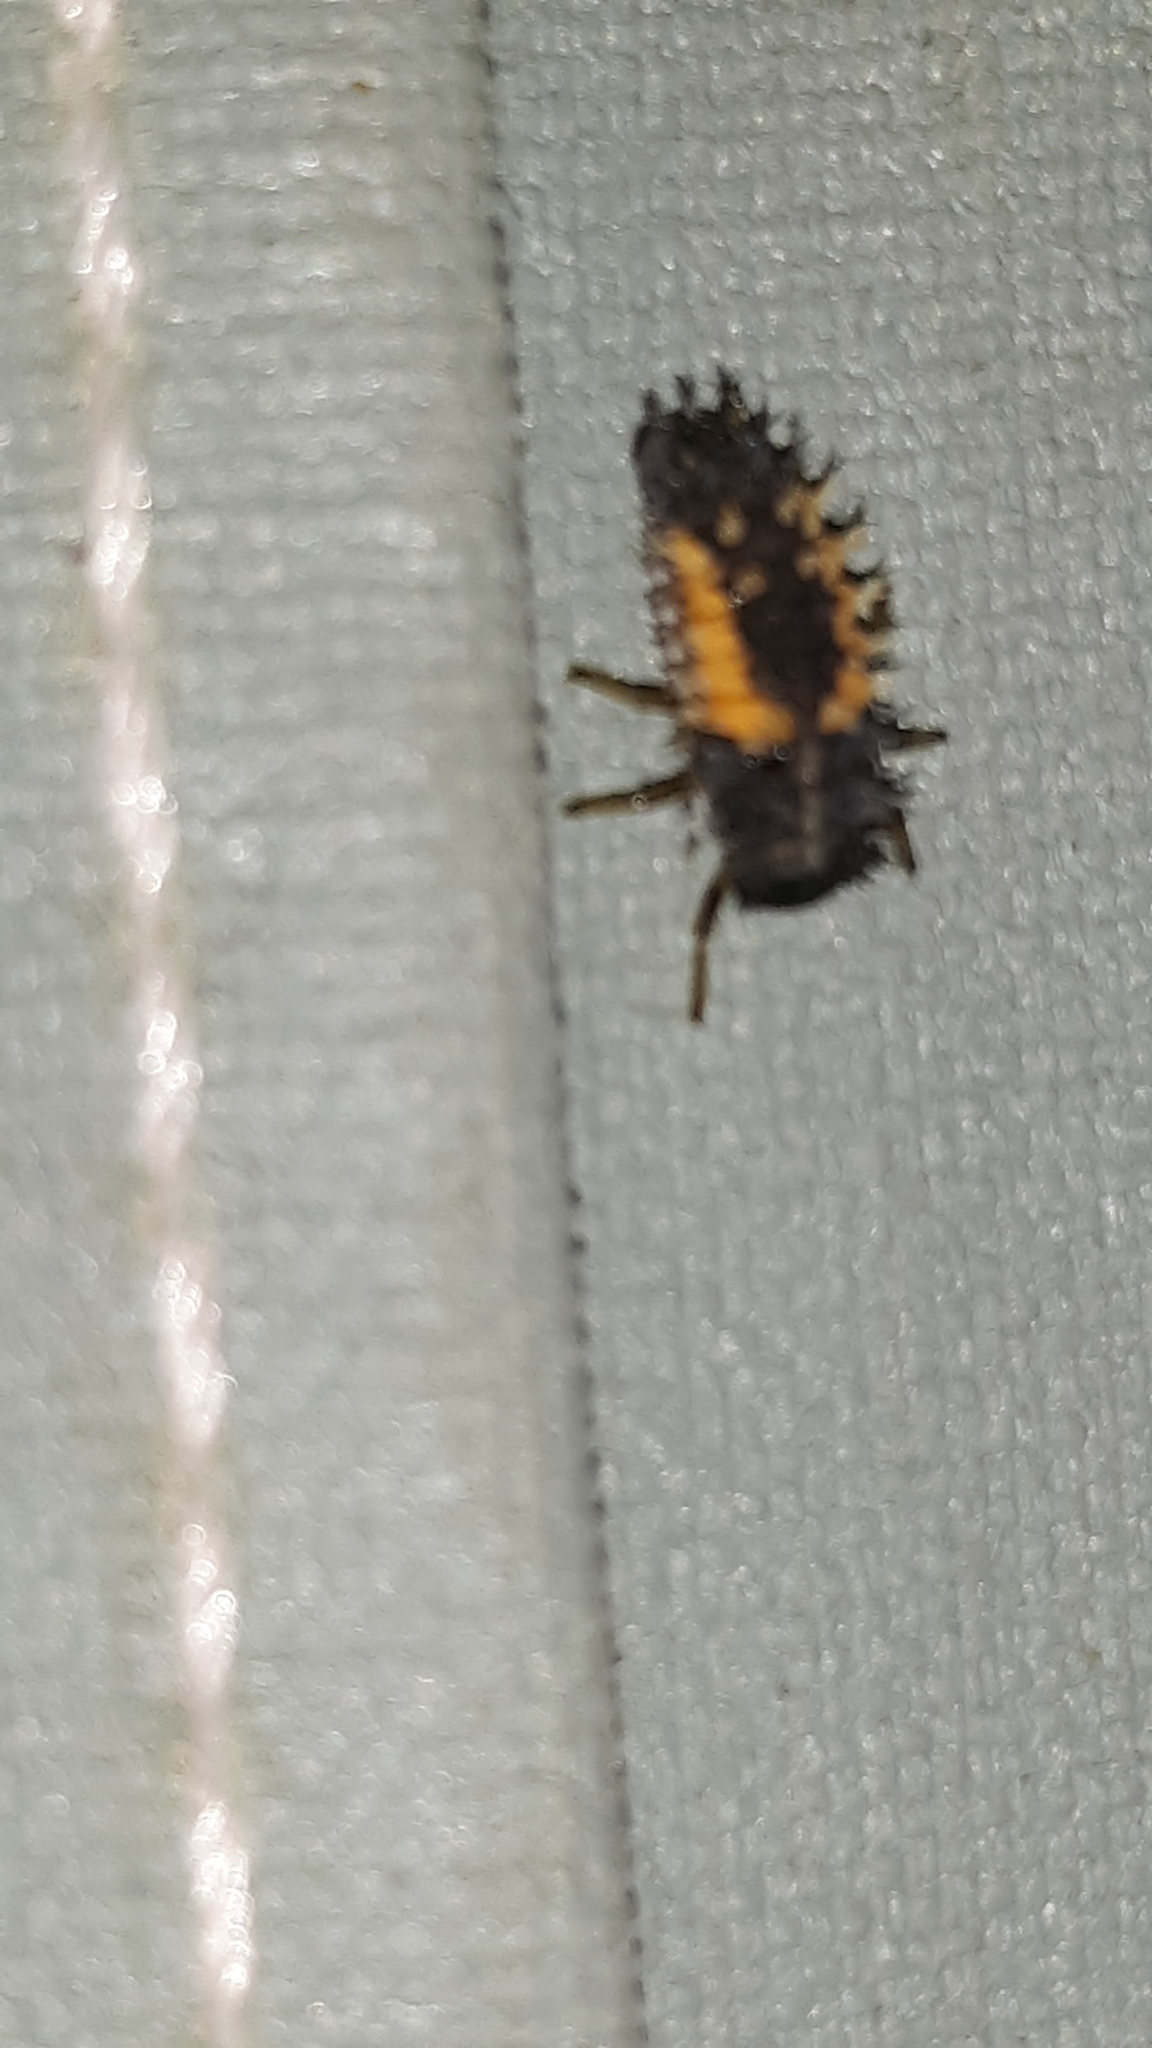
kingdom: Animalia
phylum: Arthropoda
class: Insecta
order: Coleoptera
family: Coccinellidae
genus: Harmonia
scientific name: Harmonia axyridis
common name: Harlequin ladybird
